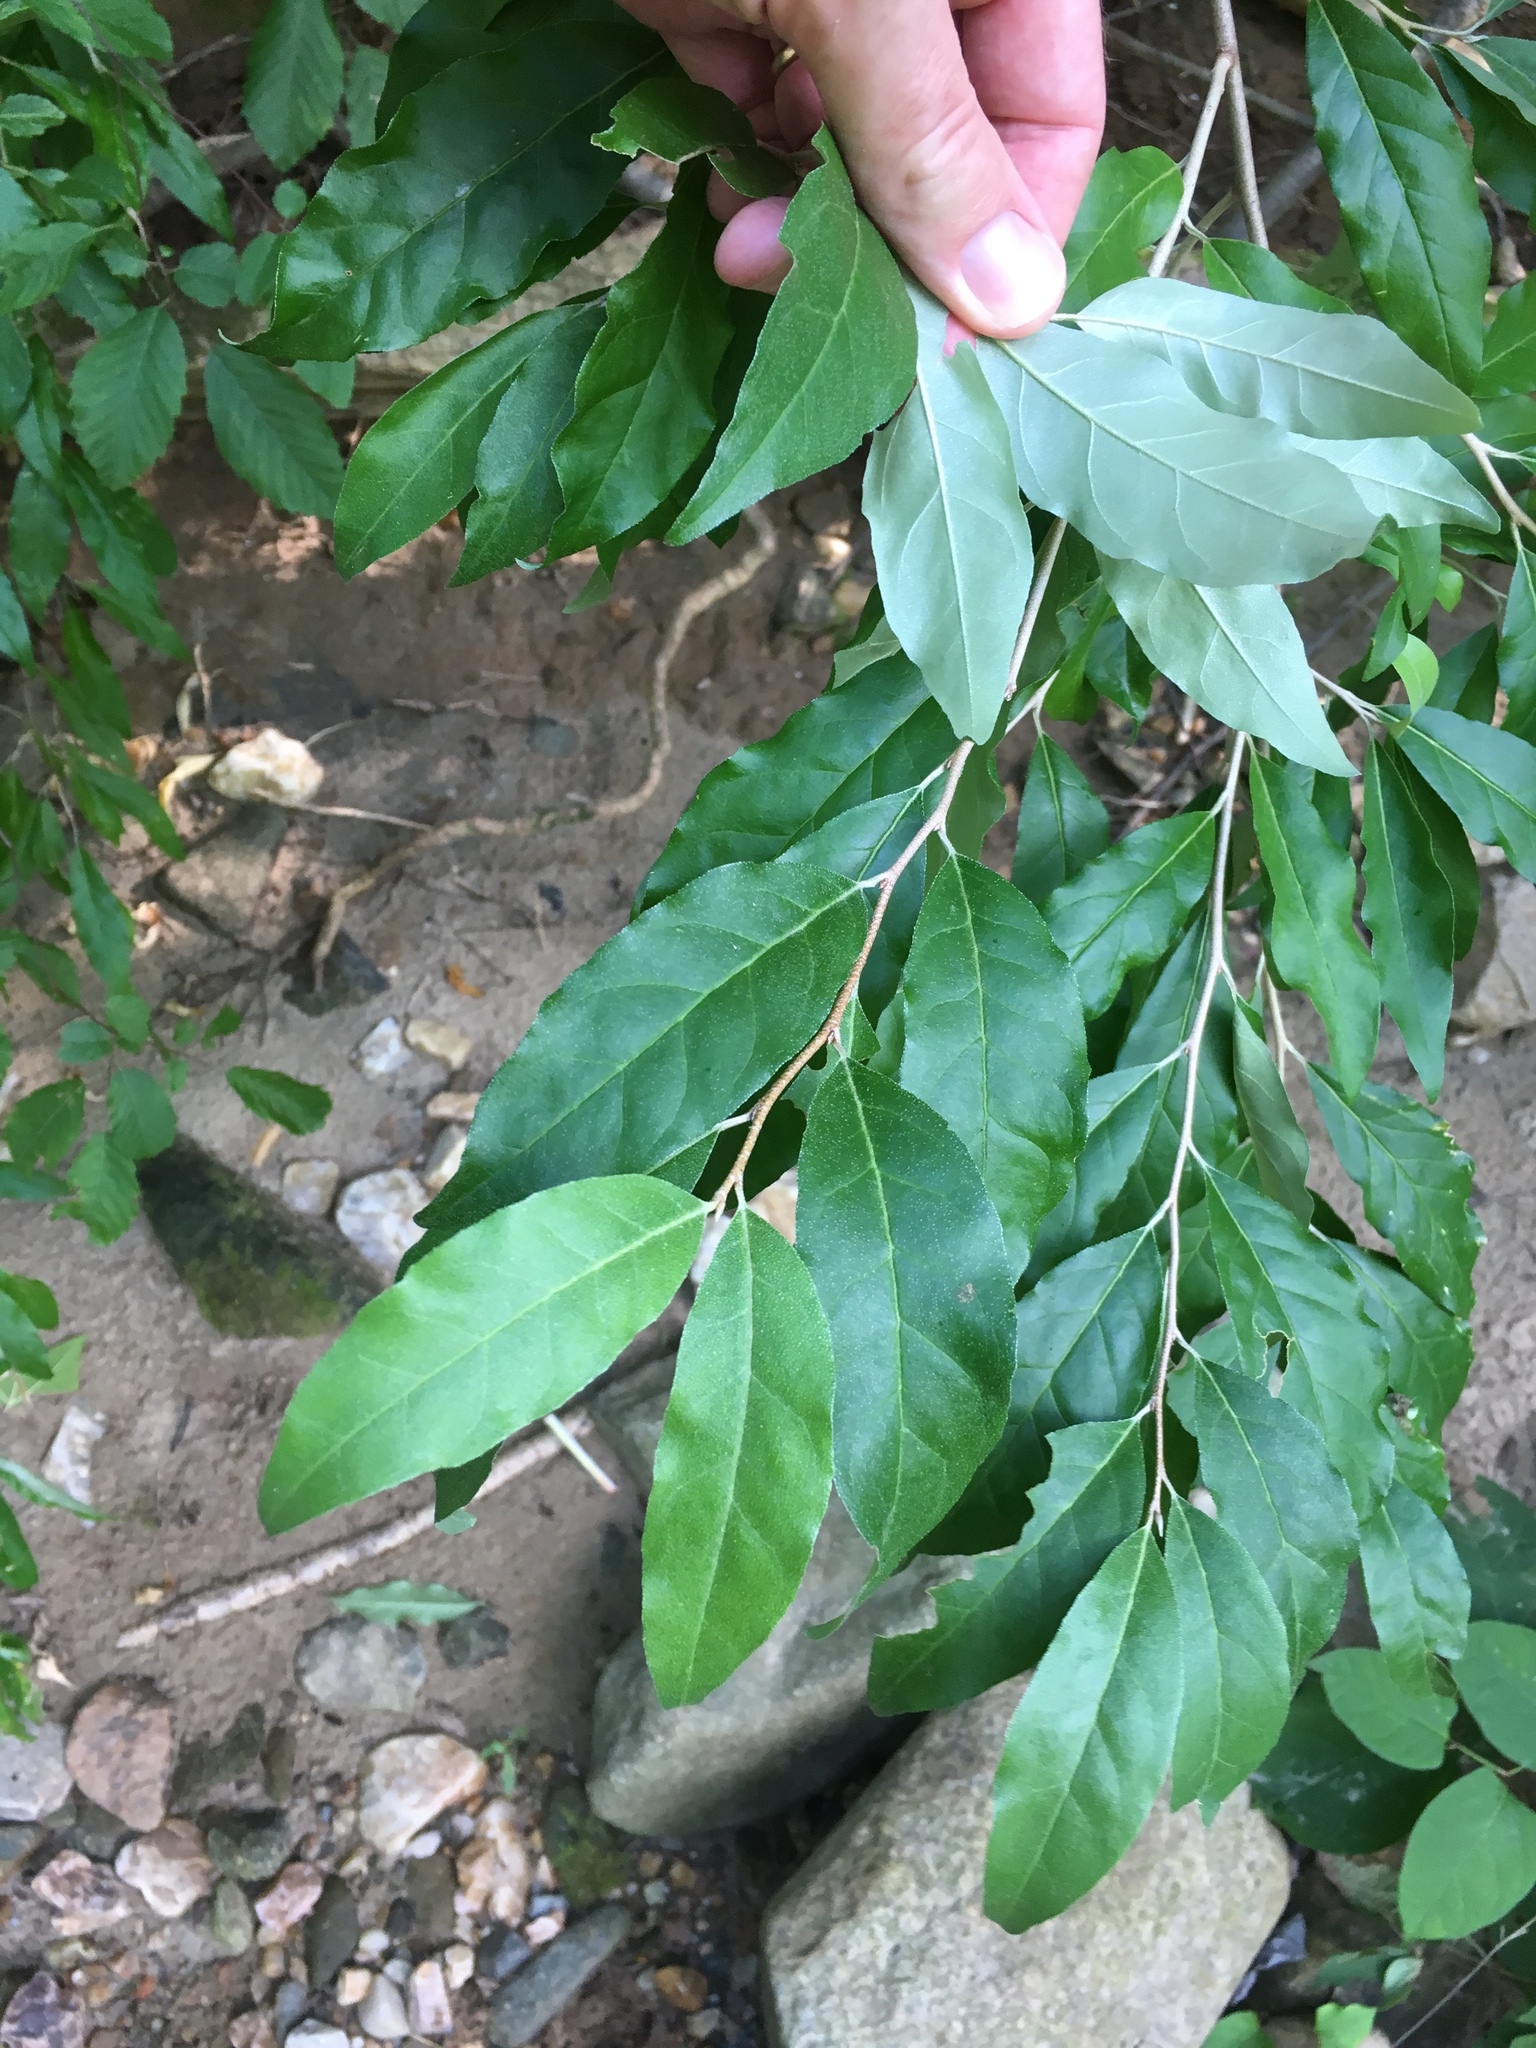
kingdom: Plantae
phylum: Tracheophyta
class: Magnoliopsida
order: Rosales
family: Elaeagnaceae
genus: Elaeagnus
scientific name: Elaeagnus umbellata
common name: Autumn olive
